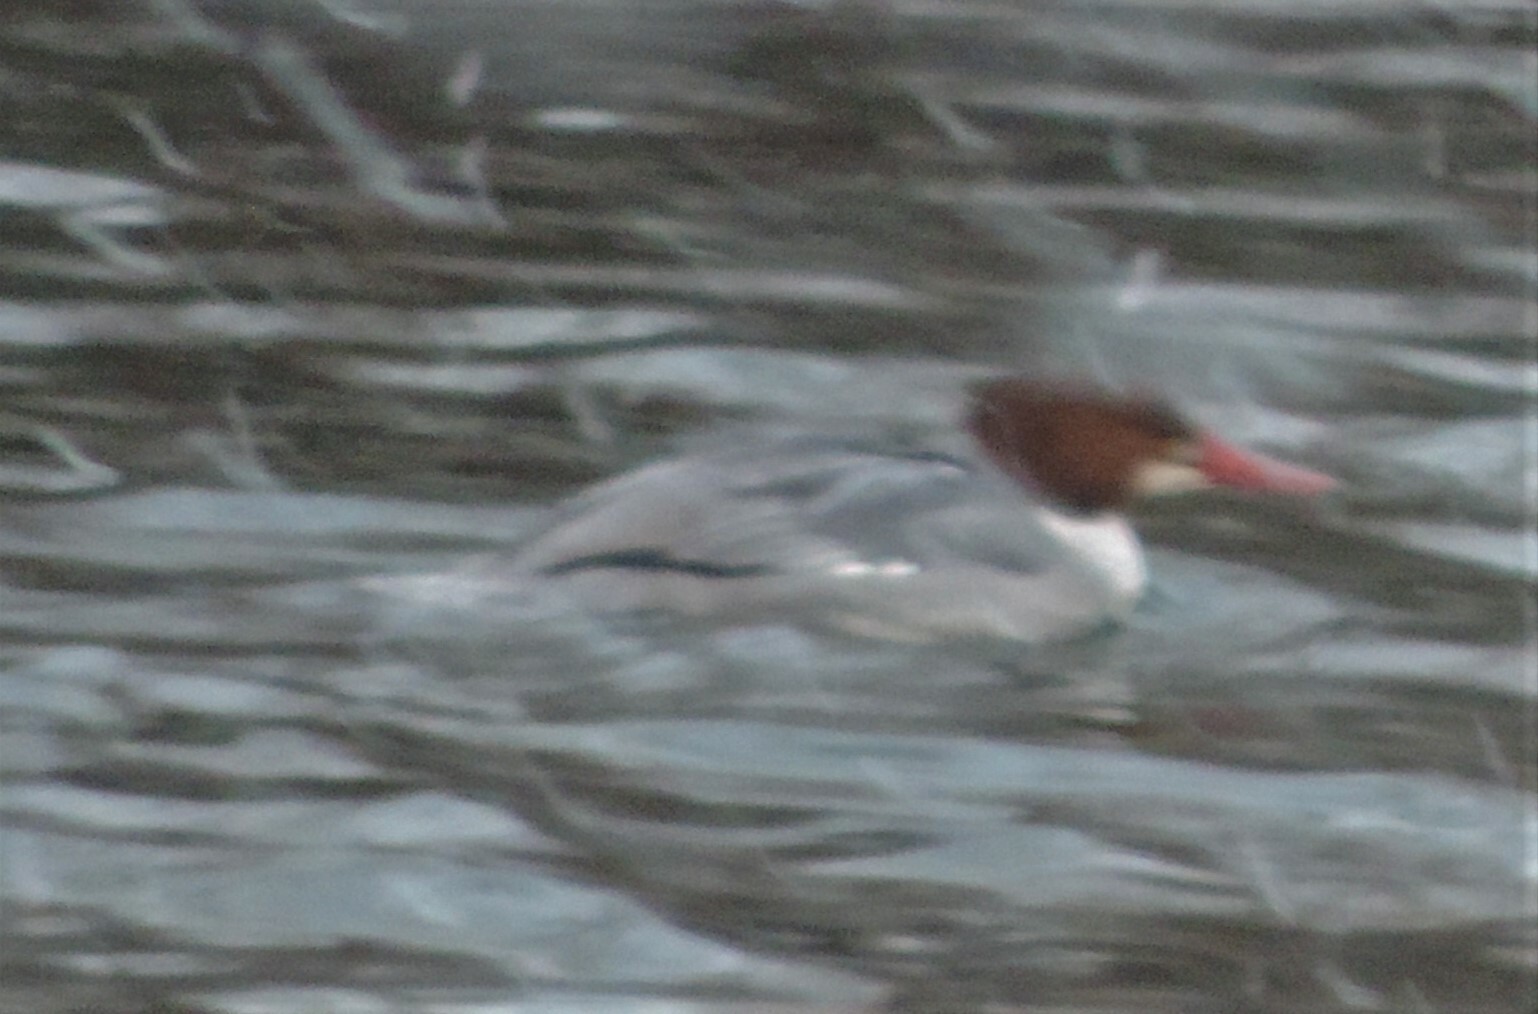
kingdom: Animalia
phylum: Chordata
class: Aves
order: Anseriformes
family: Anatidae
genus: Mergus
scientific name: Mergus merganser
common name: Common merganser
